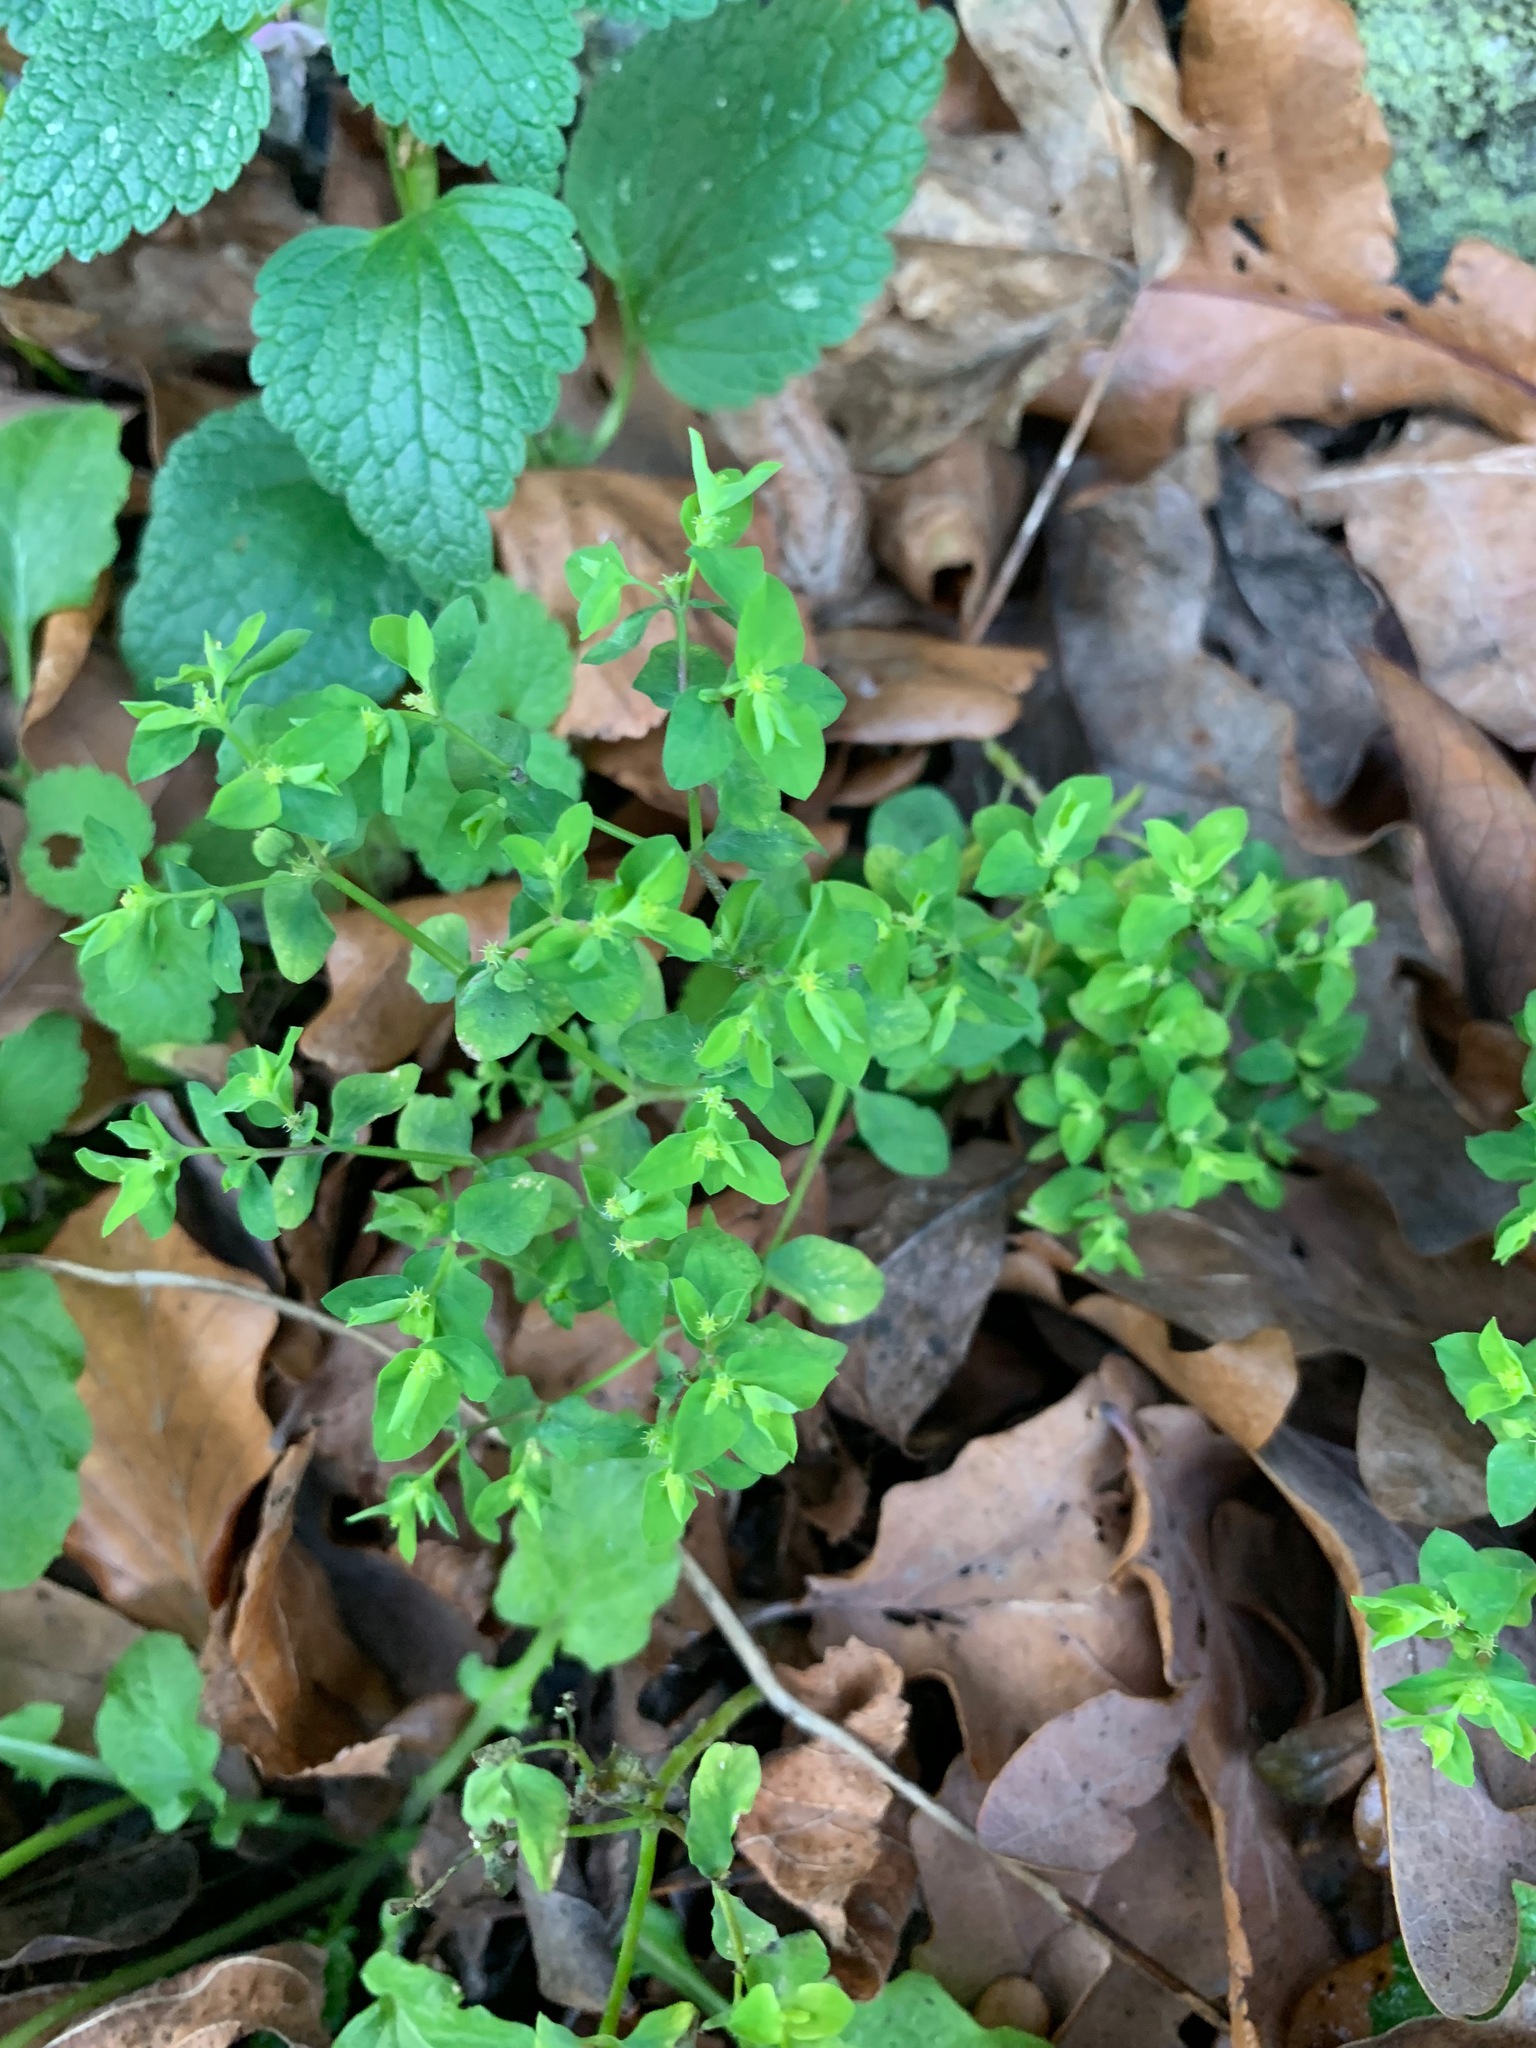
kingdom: Plantae
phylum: Tracheophyta
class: Magnoliopsida
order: Malpighiales
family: Euphorbiaceae
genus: Euphorbia
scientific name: Euphorbia peplus
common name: Petty spurge
